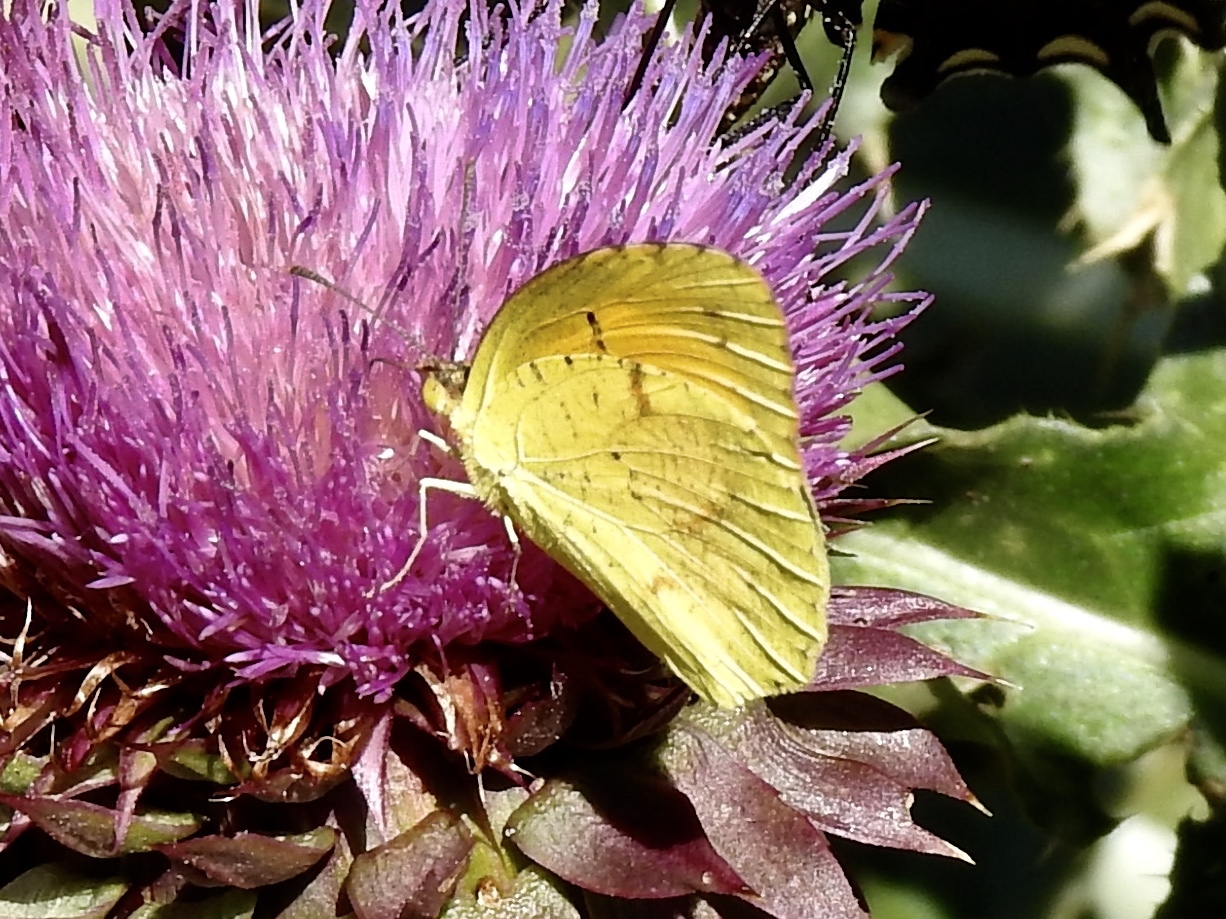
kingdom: Animalia
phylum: Arthropoda
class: Insecta
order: Lepidoptera
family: Pieridae
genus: Abaeis
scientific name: Abaeis nicippe
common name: Sleepy orange
